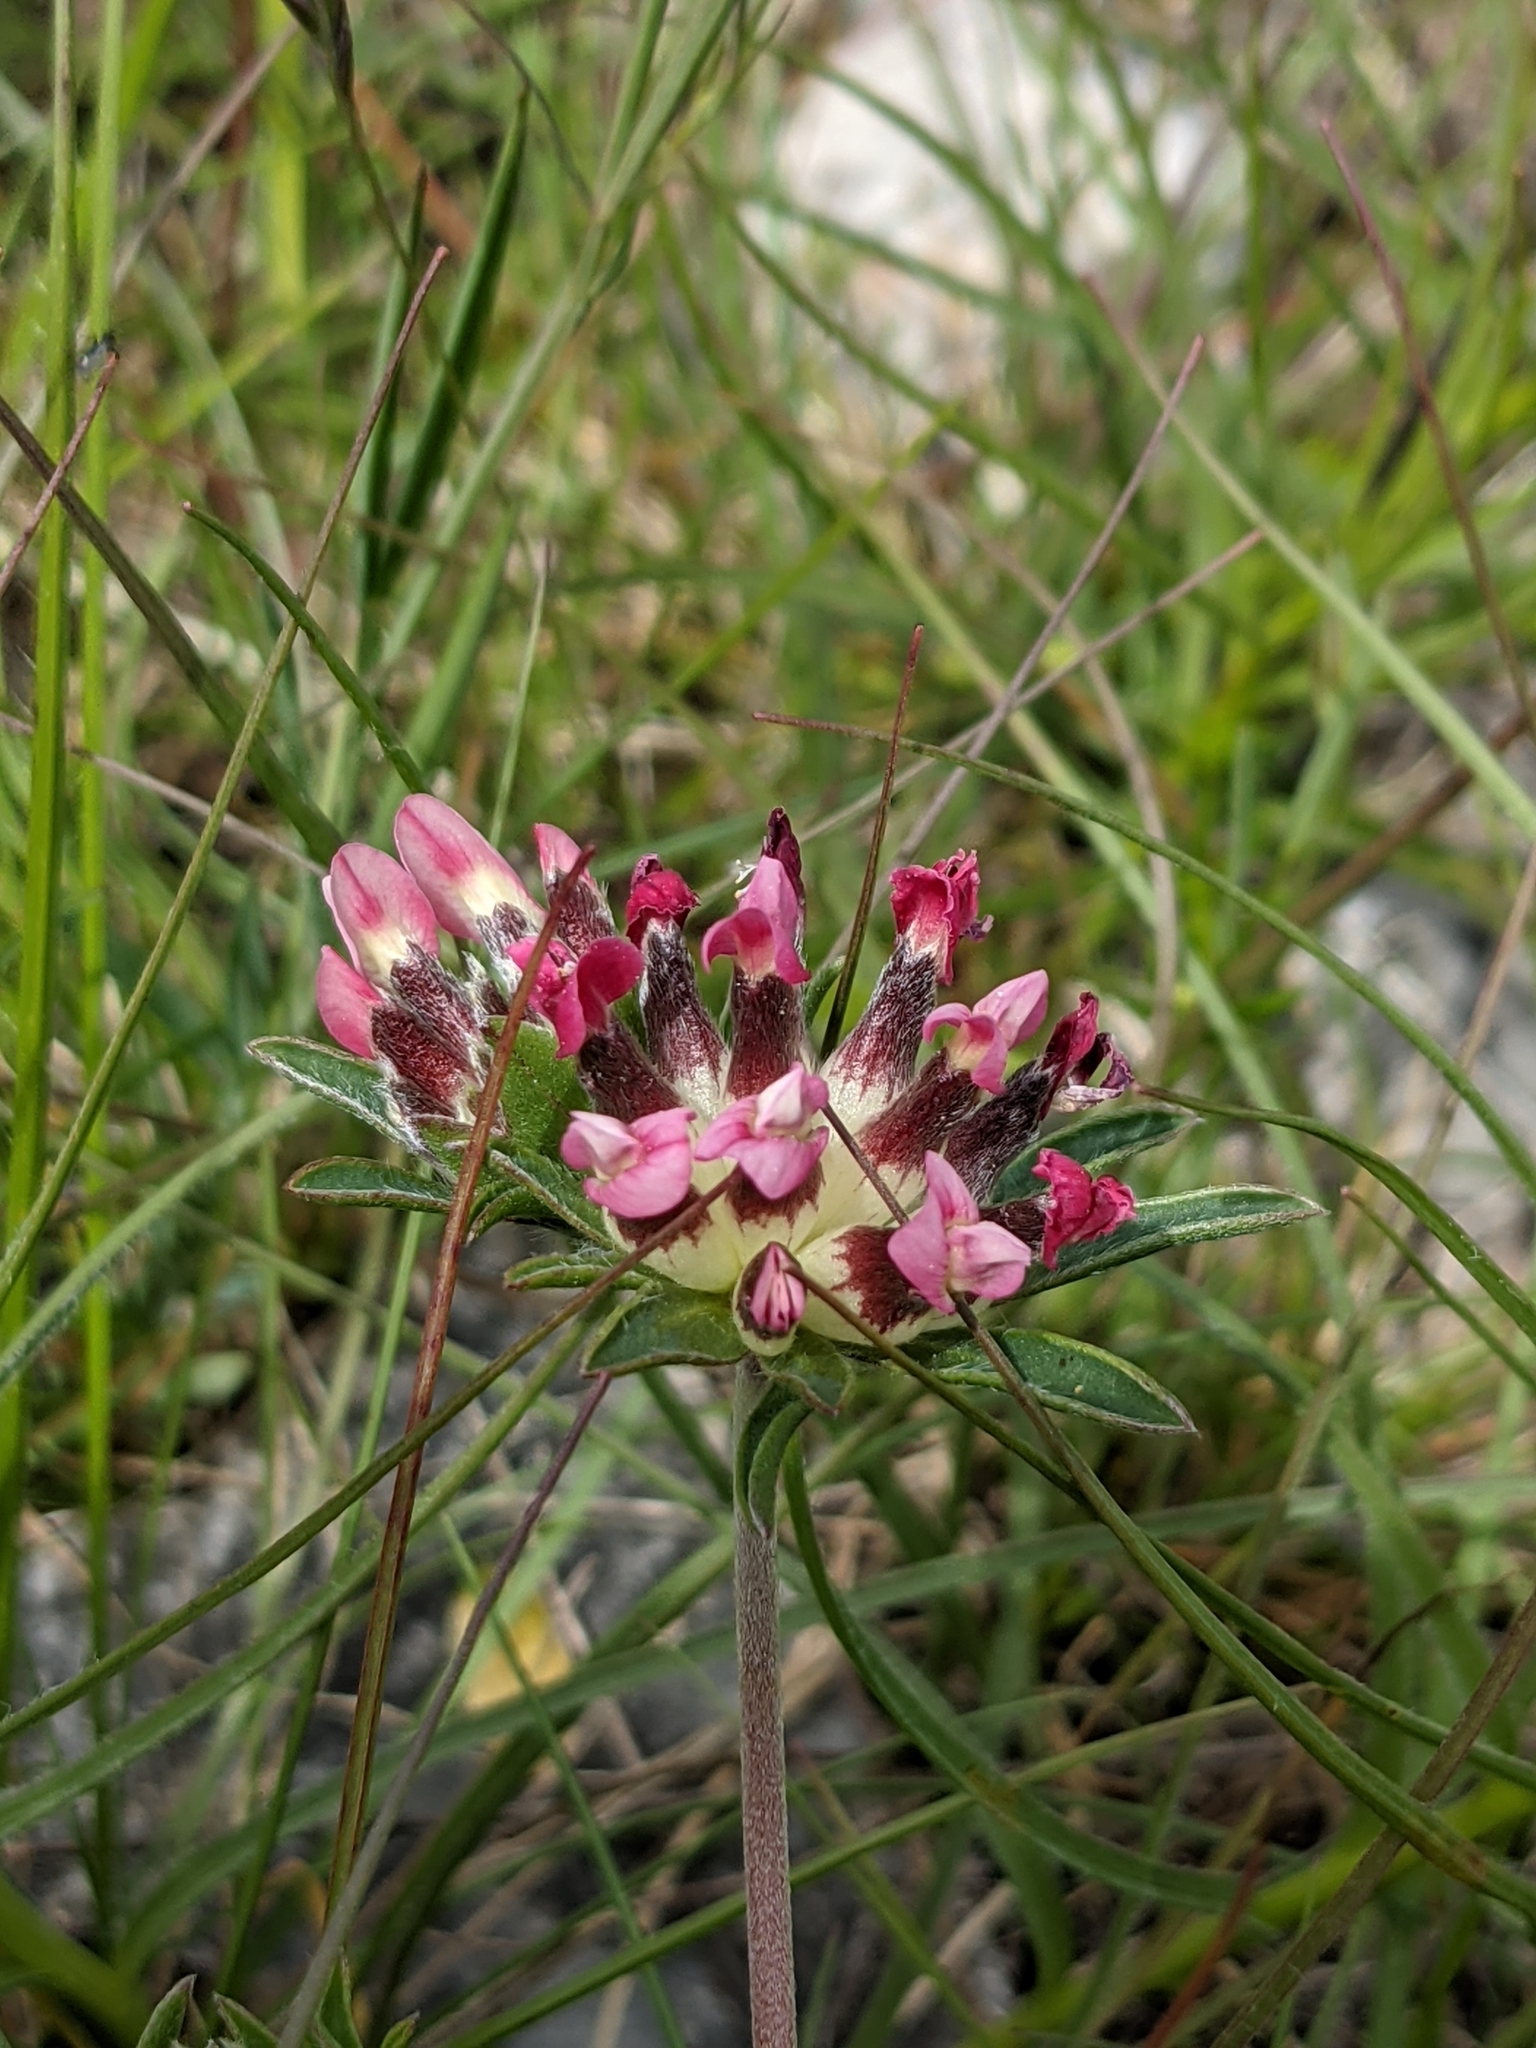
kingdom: Plantae
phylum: Tracheophyta
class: Magnoliopsida
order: Fabales
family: Fabaceae
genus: Anthyllis
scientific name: Anthyllis vulneraria
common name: Kidney vetch
